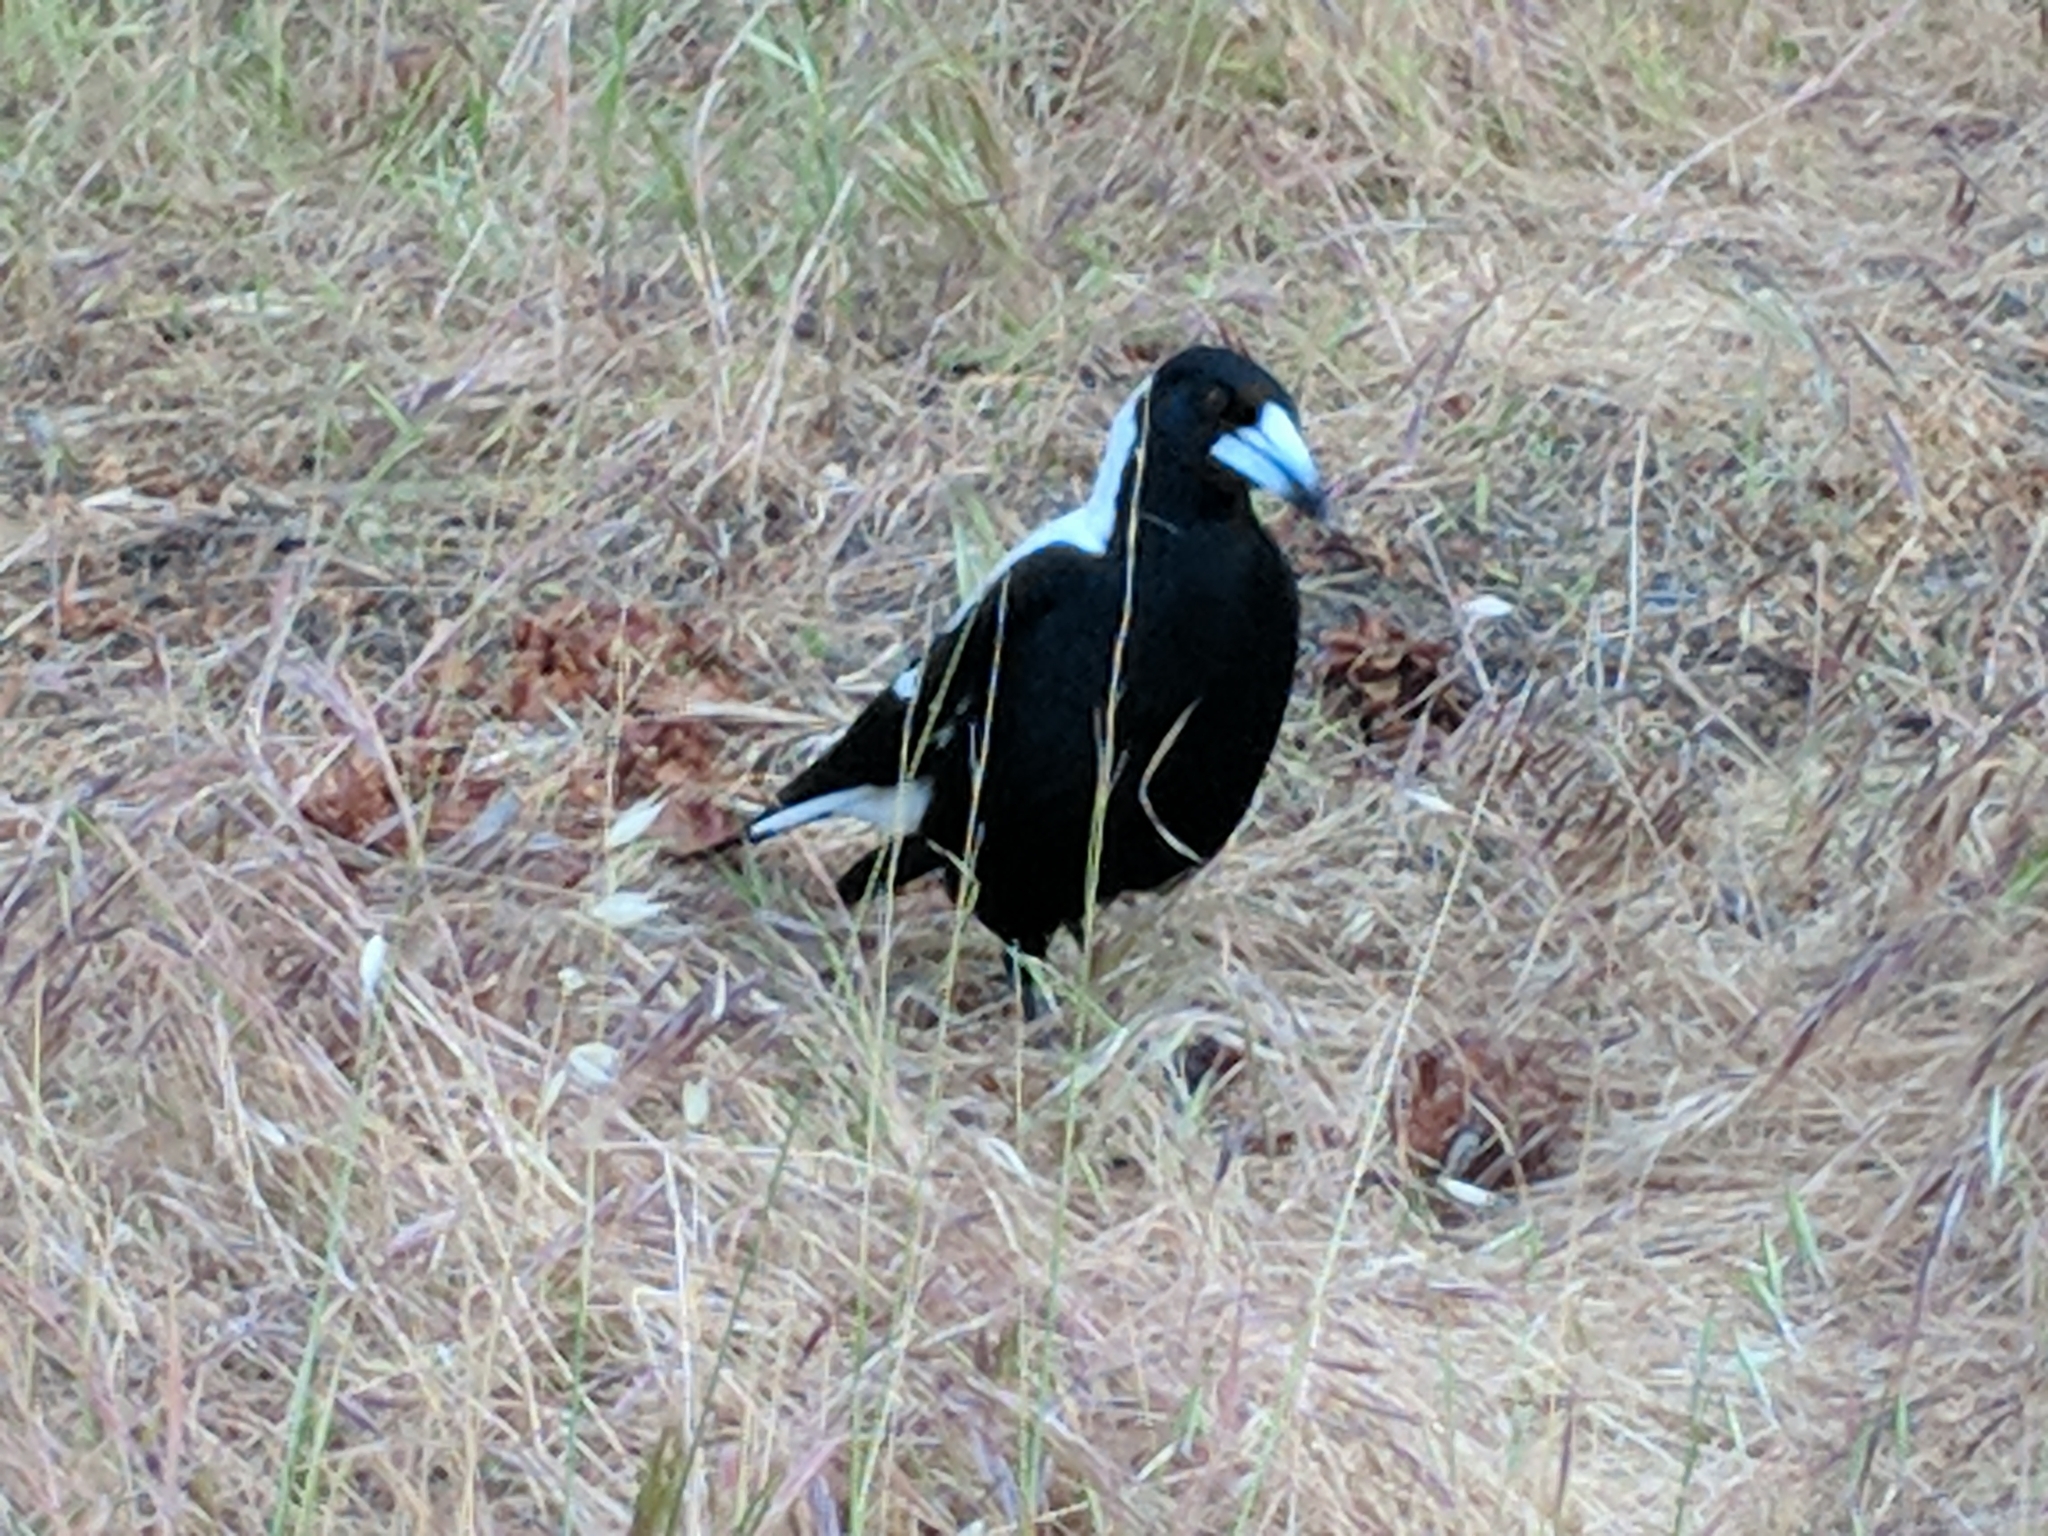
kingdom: Animalia
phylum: Chordata
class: Aves
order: Passeriformes
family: Cracticidae
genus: Gymnorhina
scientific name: Gymnorhina tibicen
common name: Australian magpie
